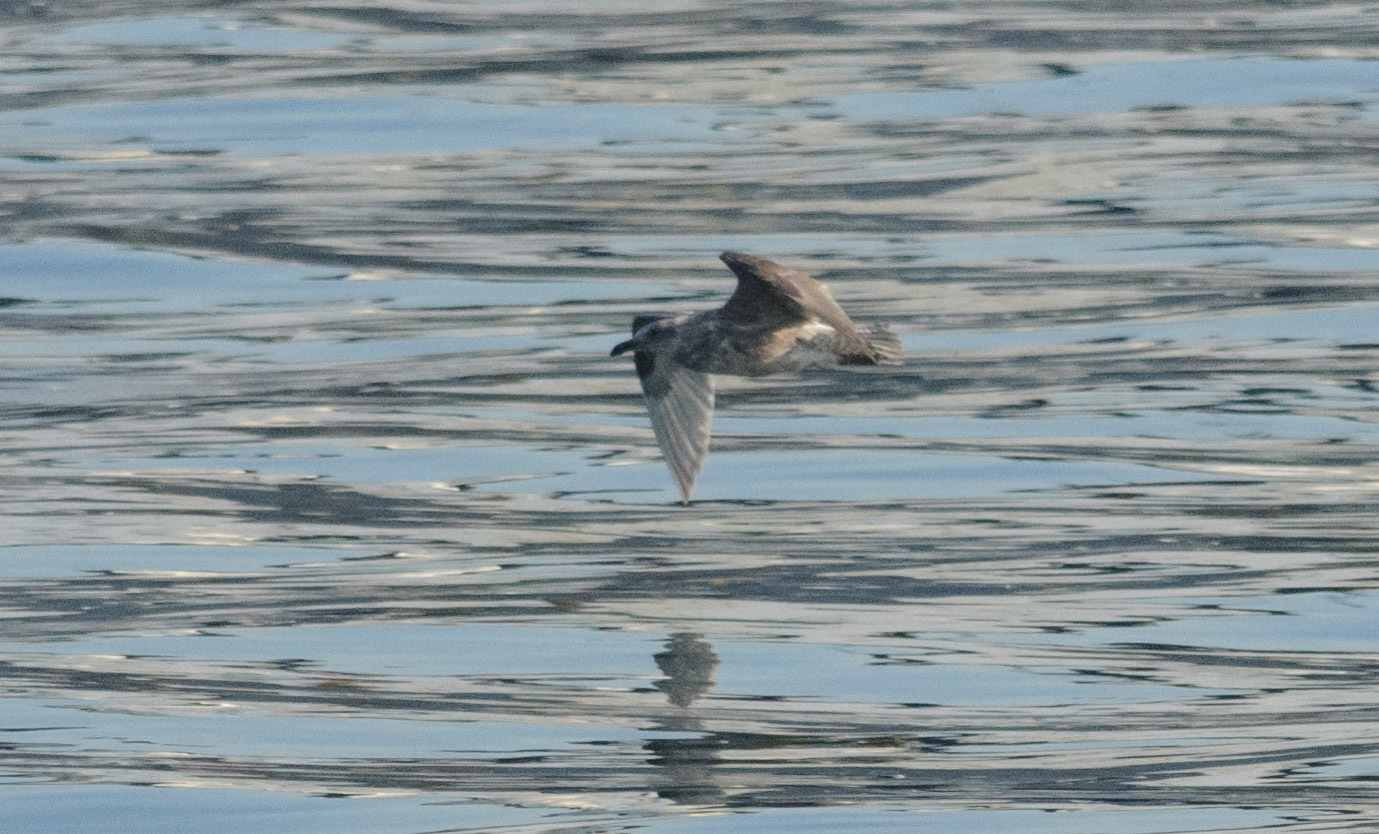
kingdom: Animalia
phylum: Chordata
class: Aves
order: Charadriiformes
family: Laridae
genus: Larus
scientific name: Larus
